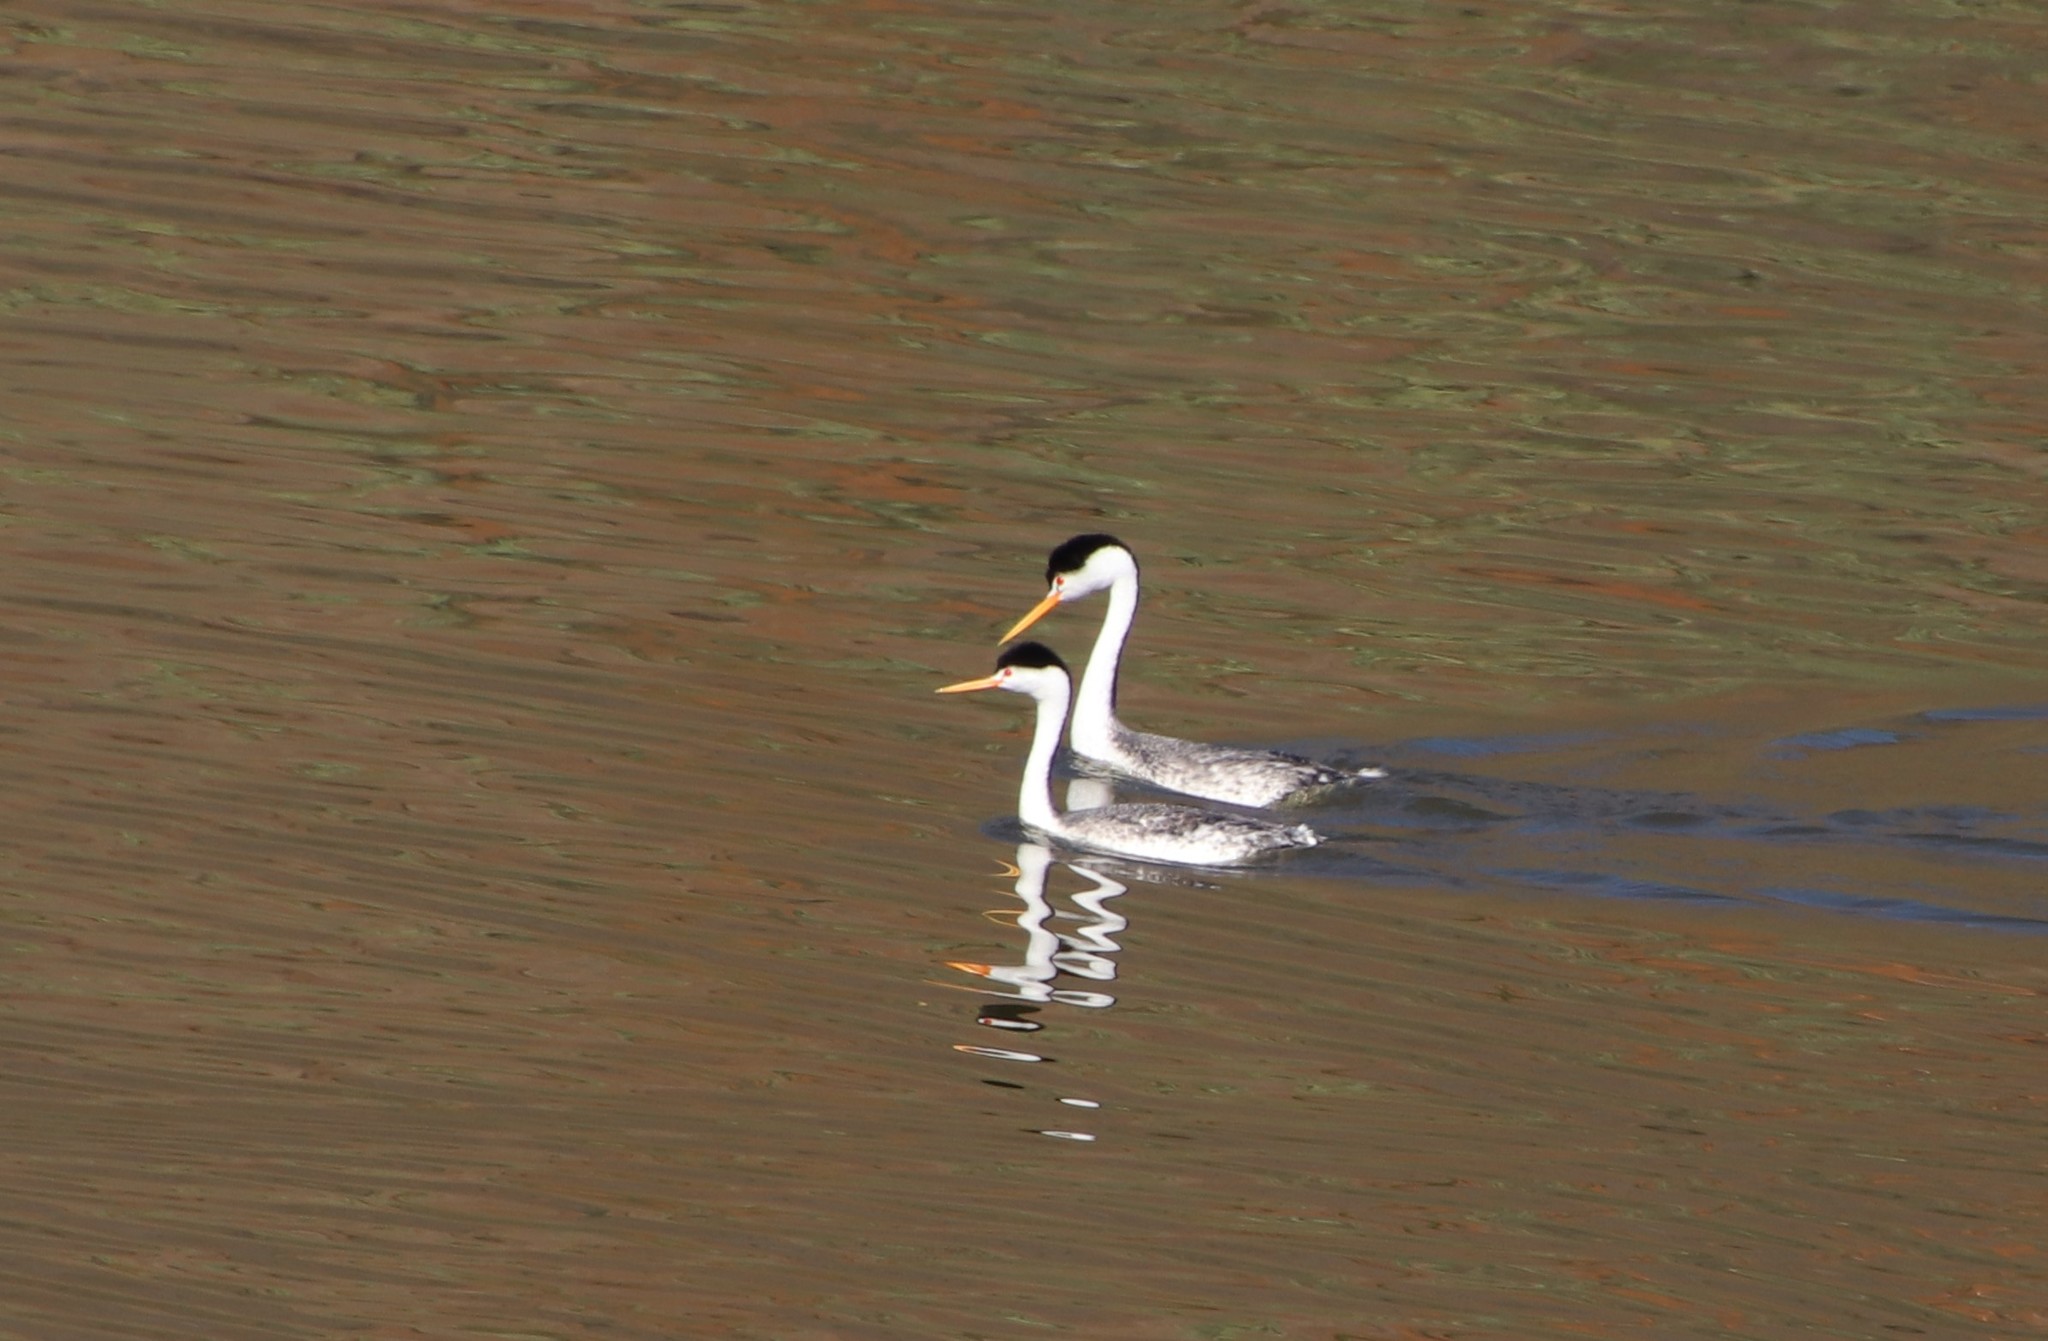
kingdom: Animalia
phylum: Chordata
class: Aves
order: Podicipediformes
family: Podicipedidae
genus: Aechmophorus
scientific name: Aechmophorus clarkii
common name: Clark's grebe
